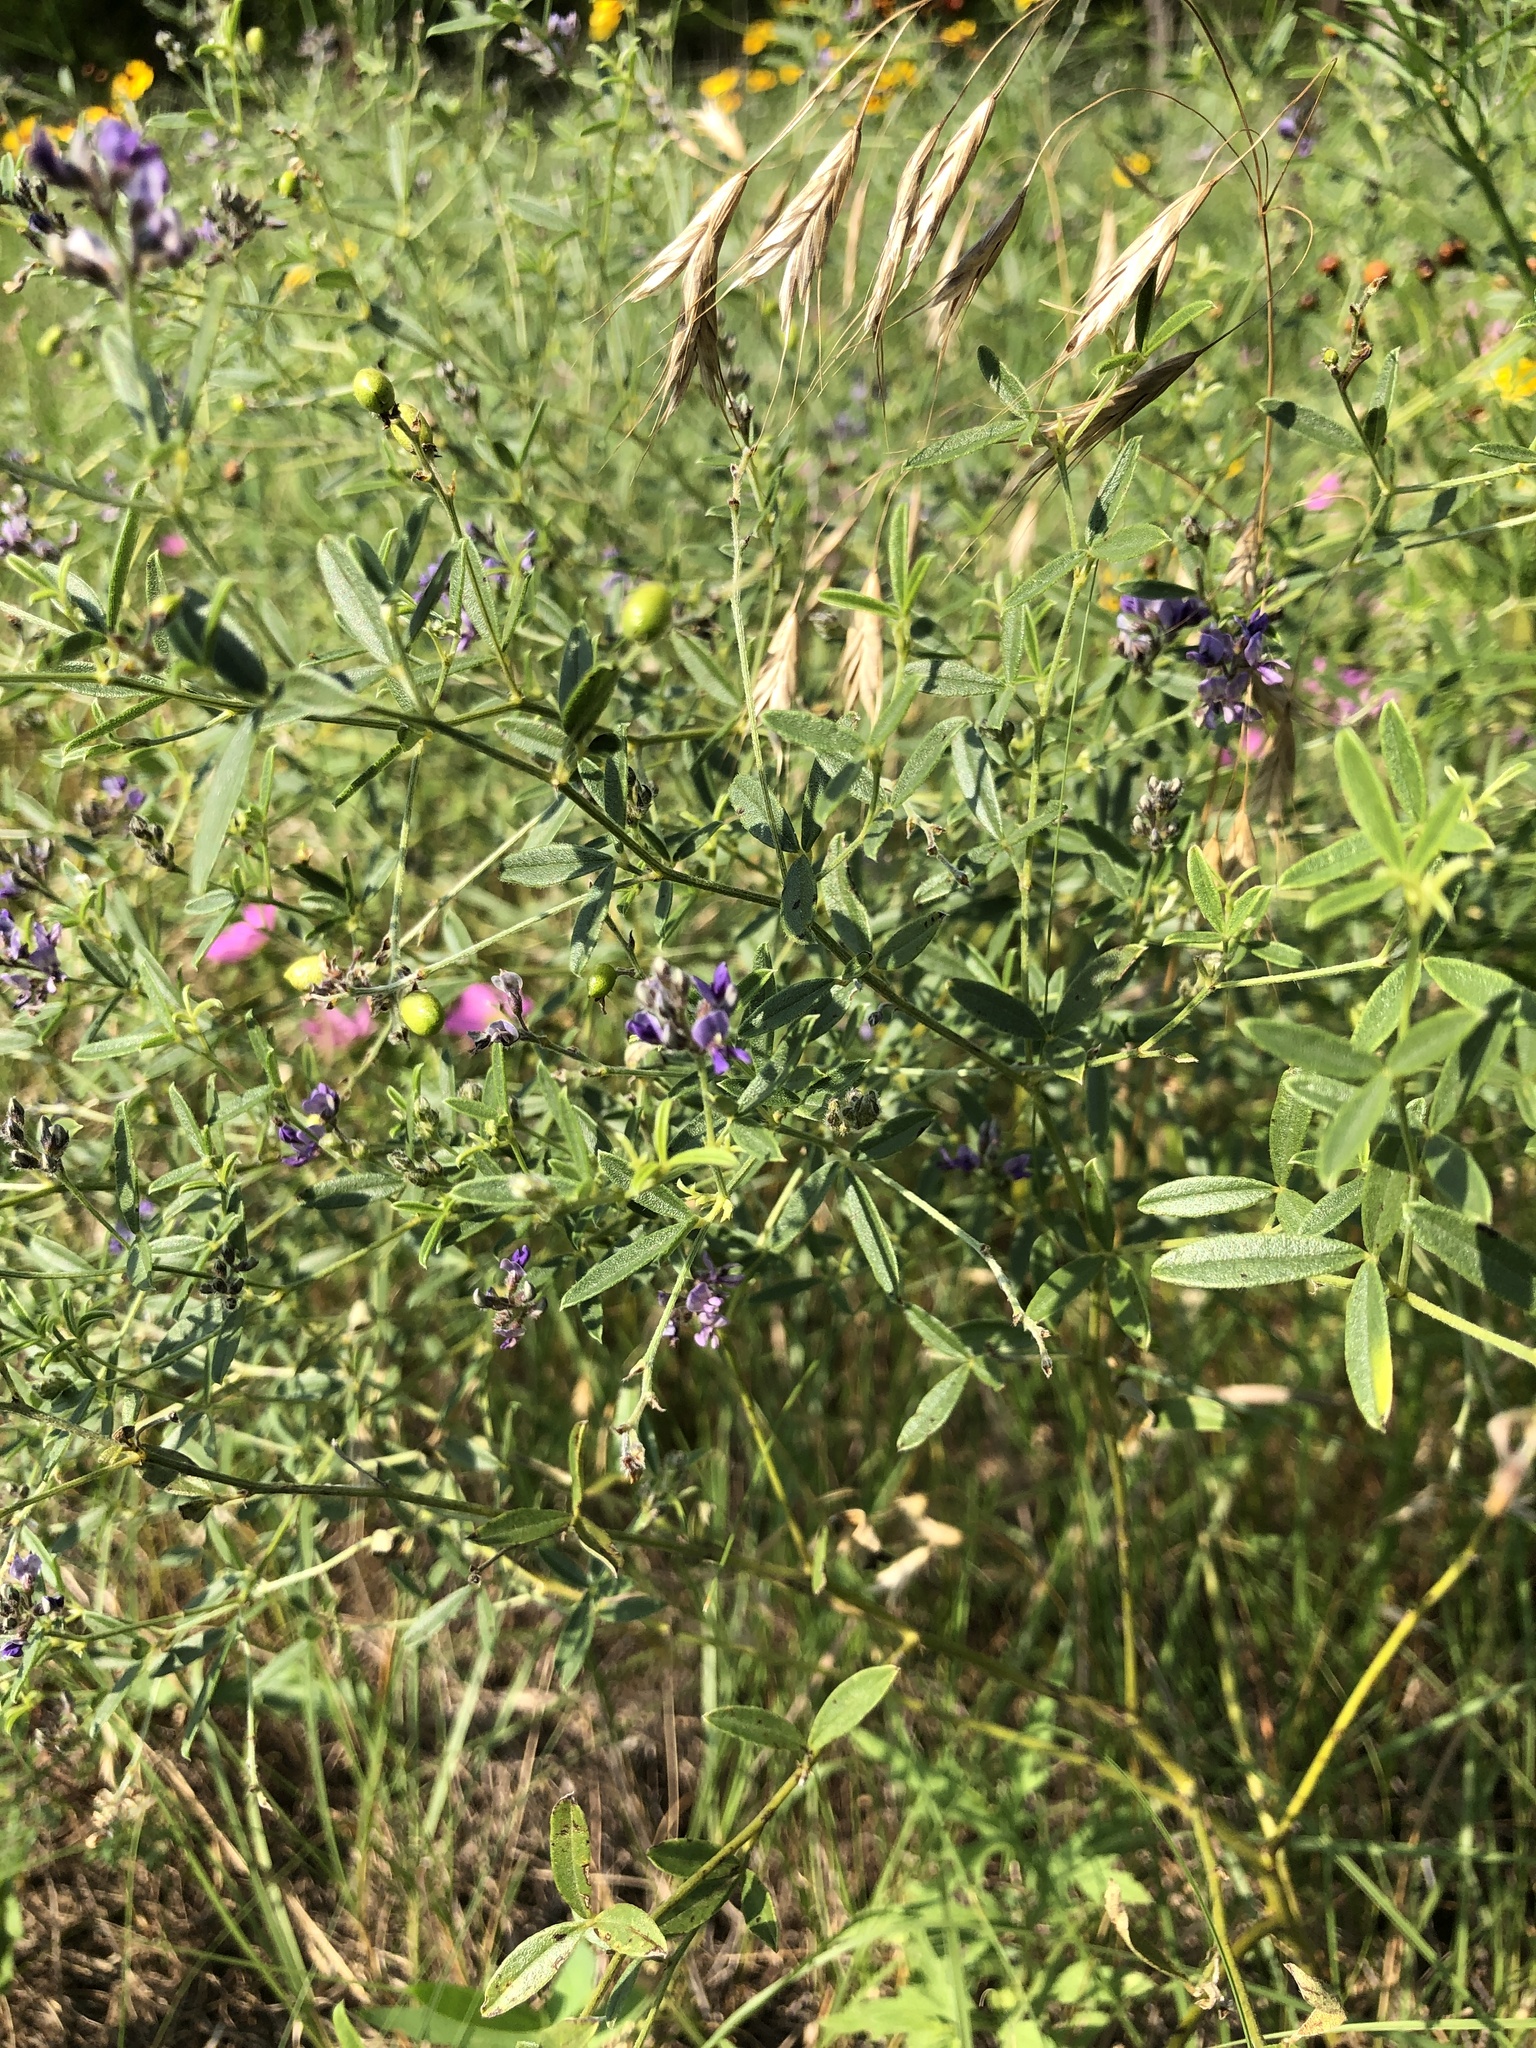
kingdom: Plantae
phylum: Tracheophyta
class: Magnoliopsida
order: Fabales
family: Fabaceae
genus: Pediomelum
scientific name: Pediomelum tenuiflorum
